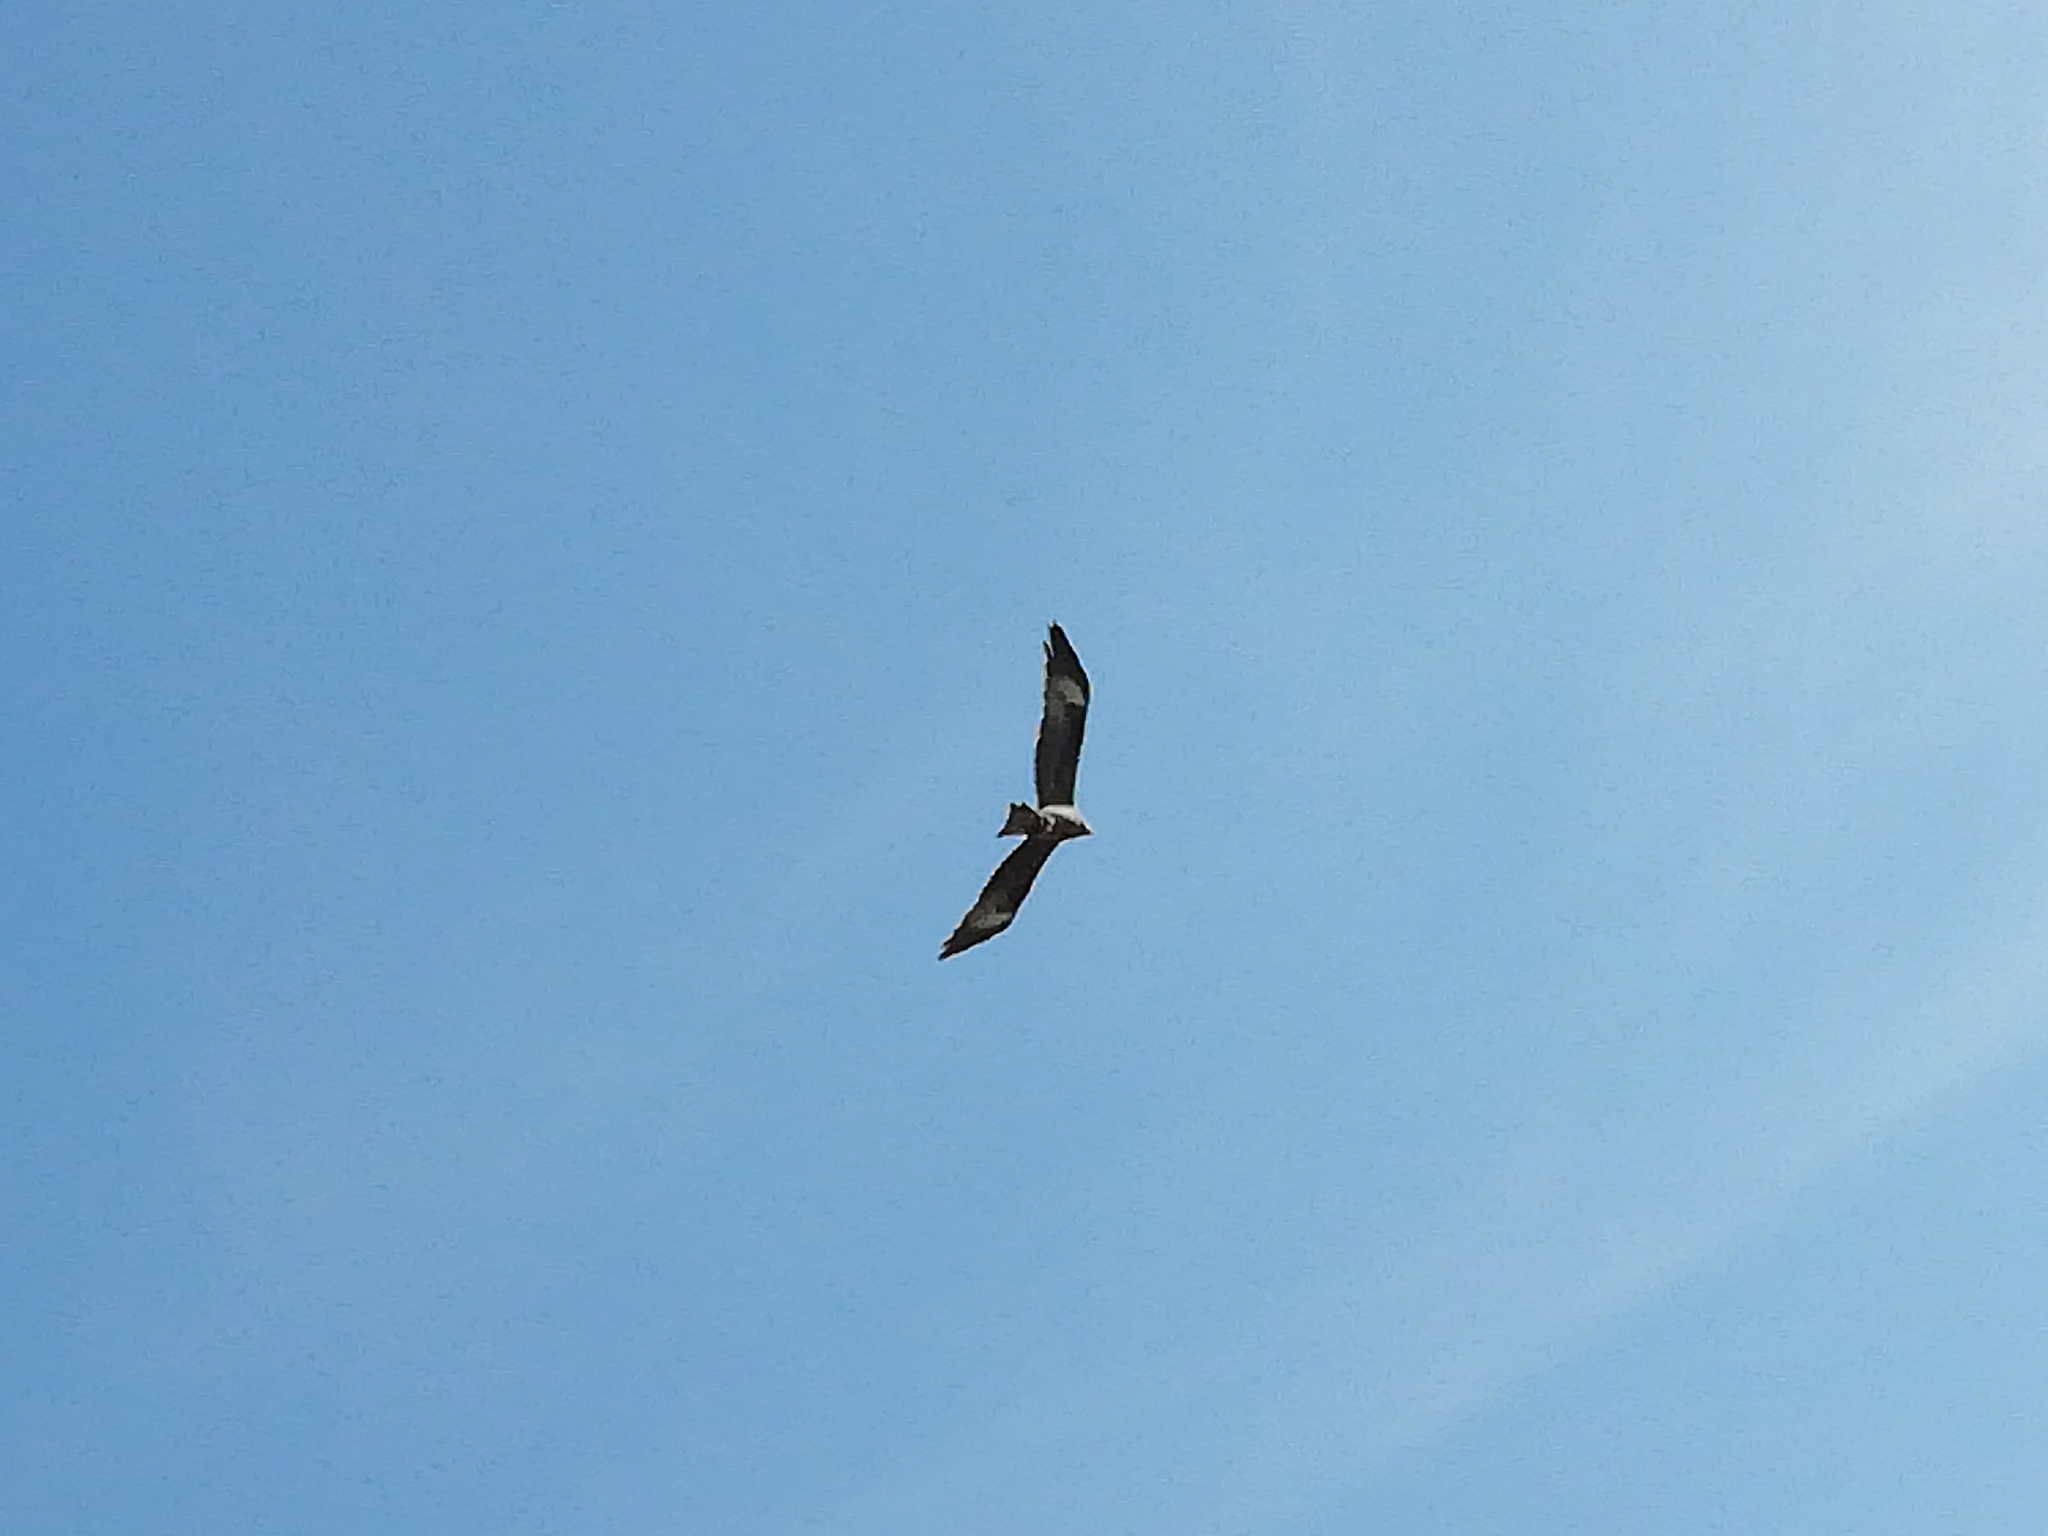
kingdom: Animalia
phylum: Chordata
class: Aves
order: Accipitriformes
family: Accipitridae
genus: Milvus
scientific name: Milvus migrans
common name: Black kite
